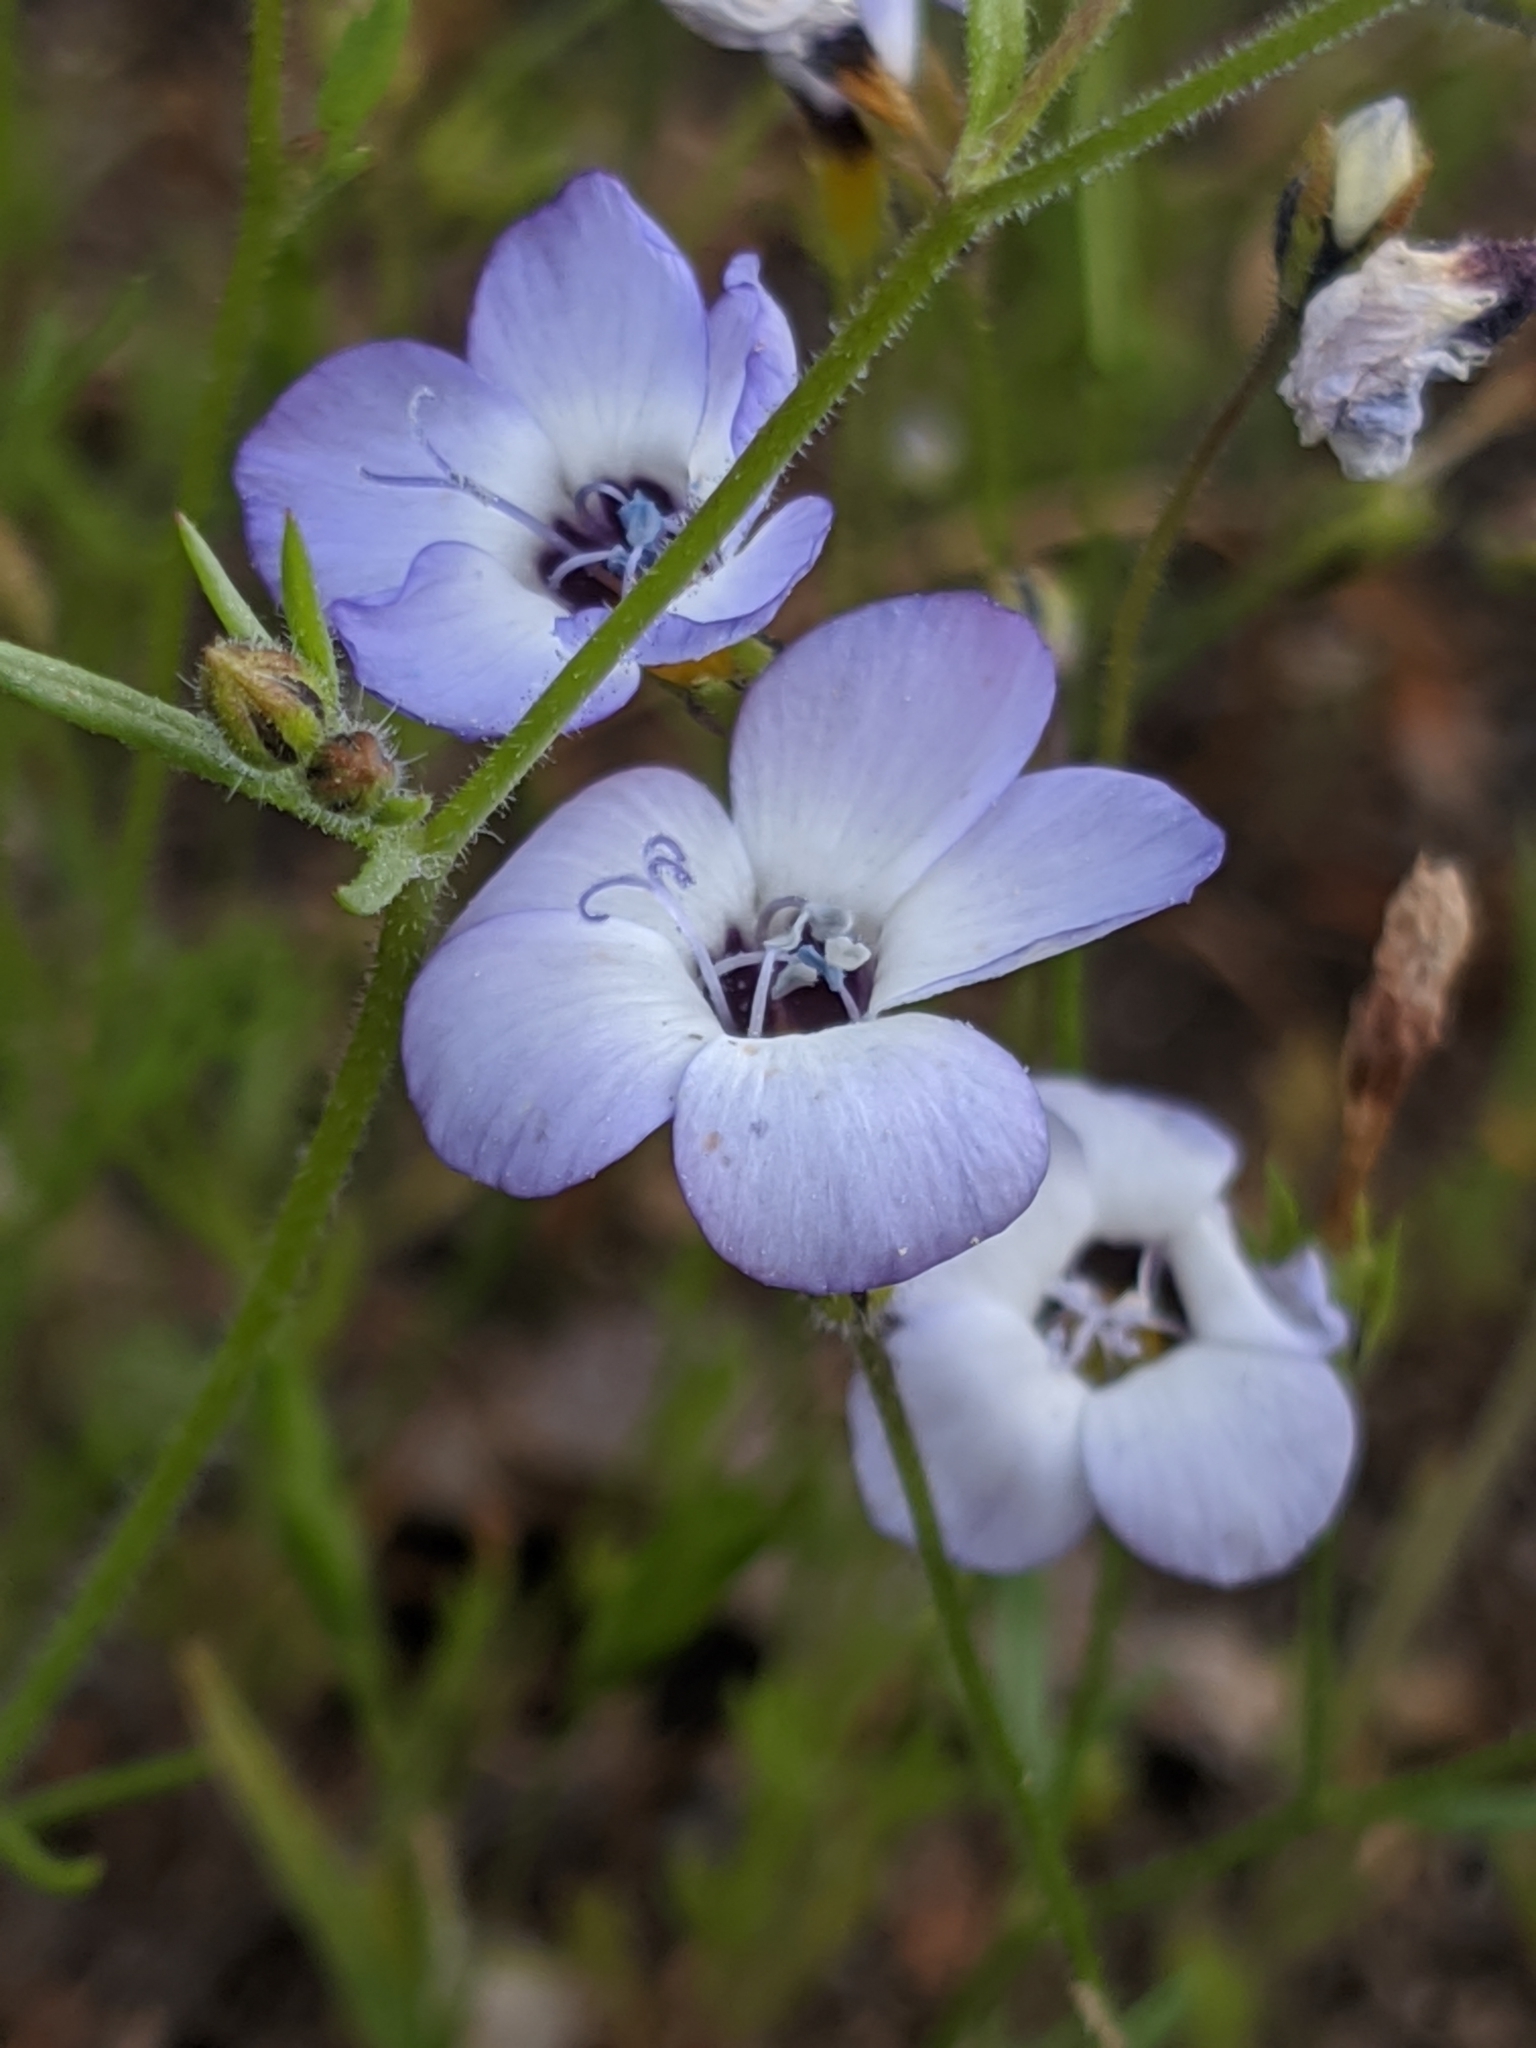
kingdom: Plantae
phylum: Tracheophyta
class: Magnoliopsida
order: Ericales
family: Polemoniaceae
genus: Gilia
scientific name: Gilia tricolor
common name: Bird's-eyes
